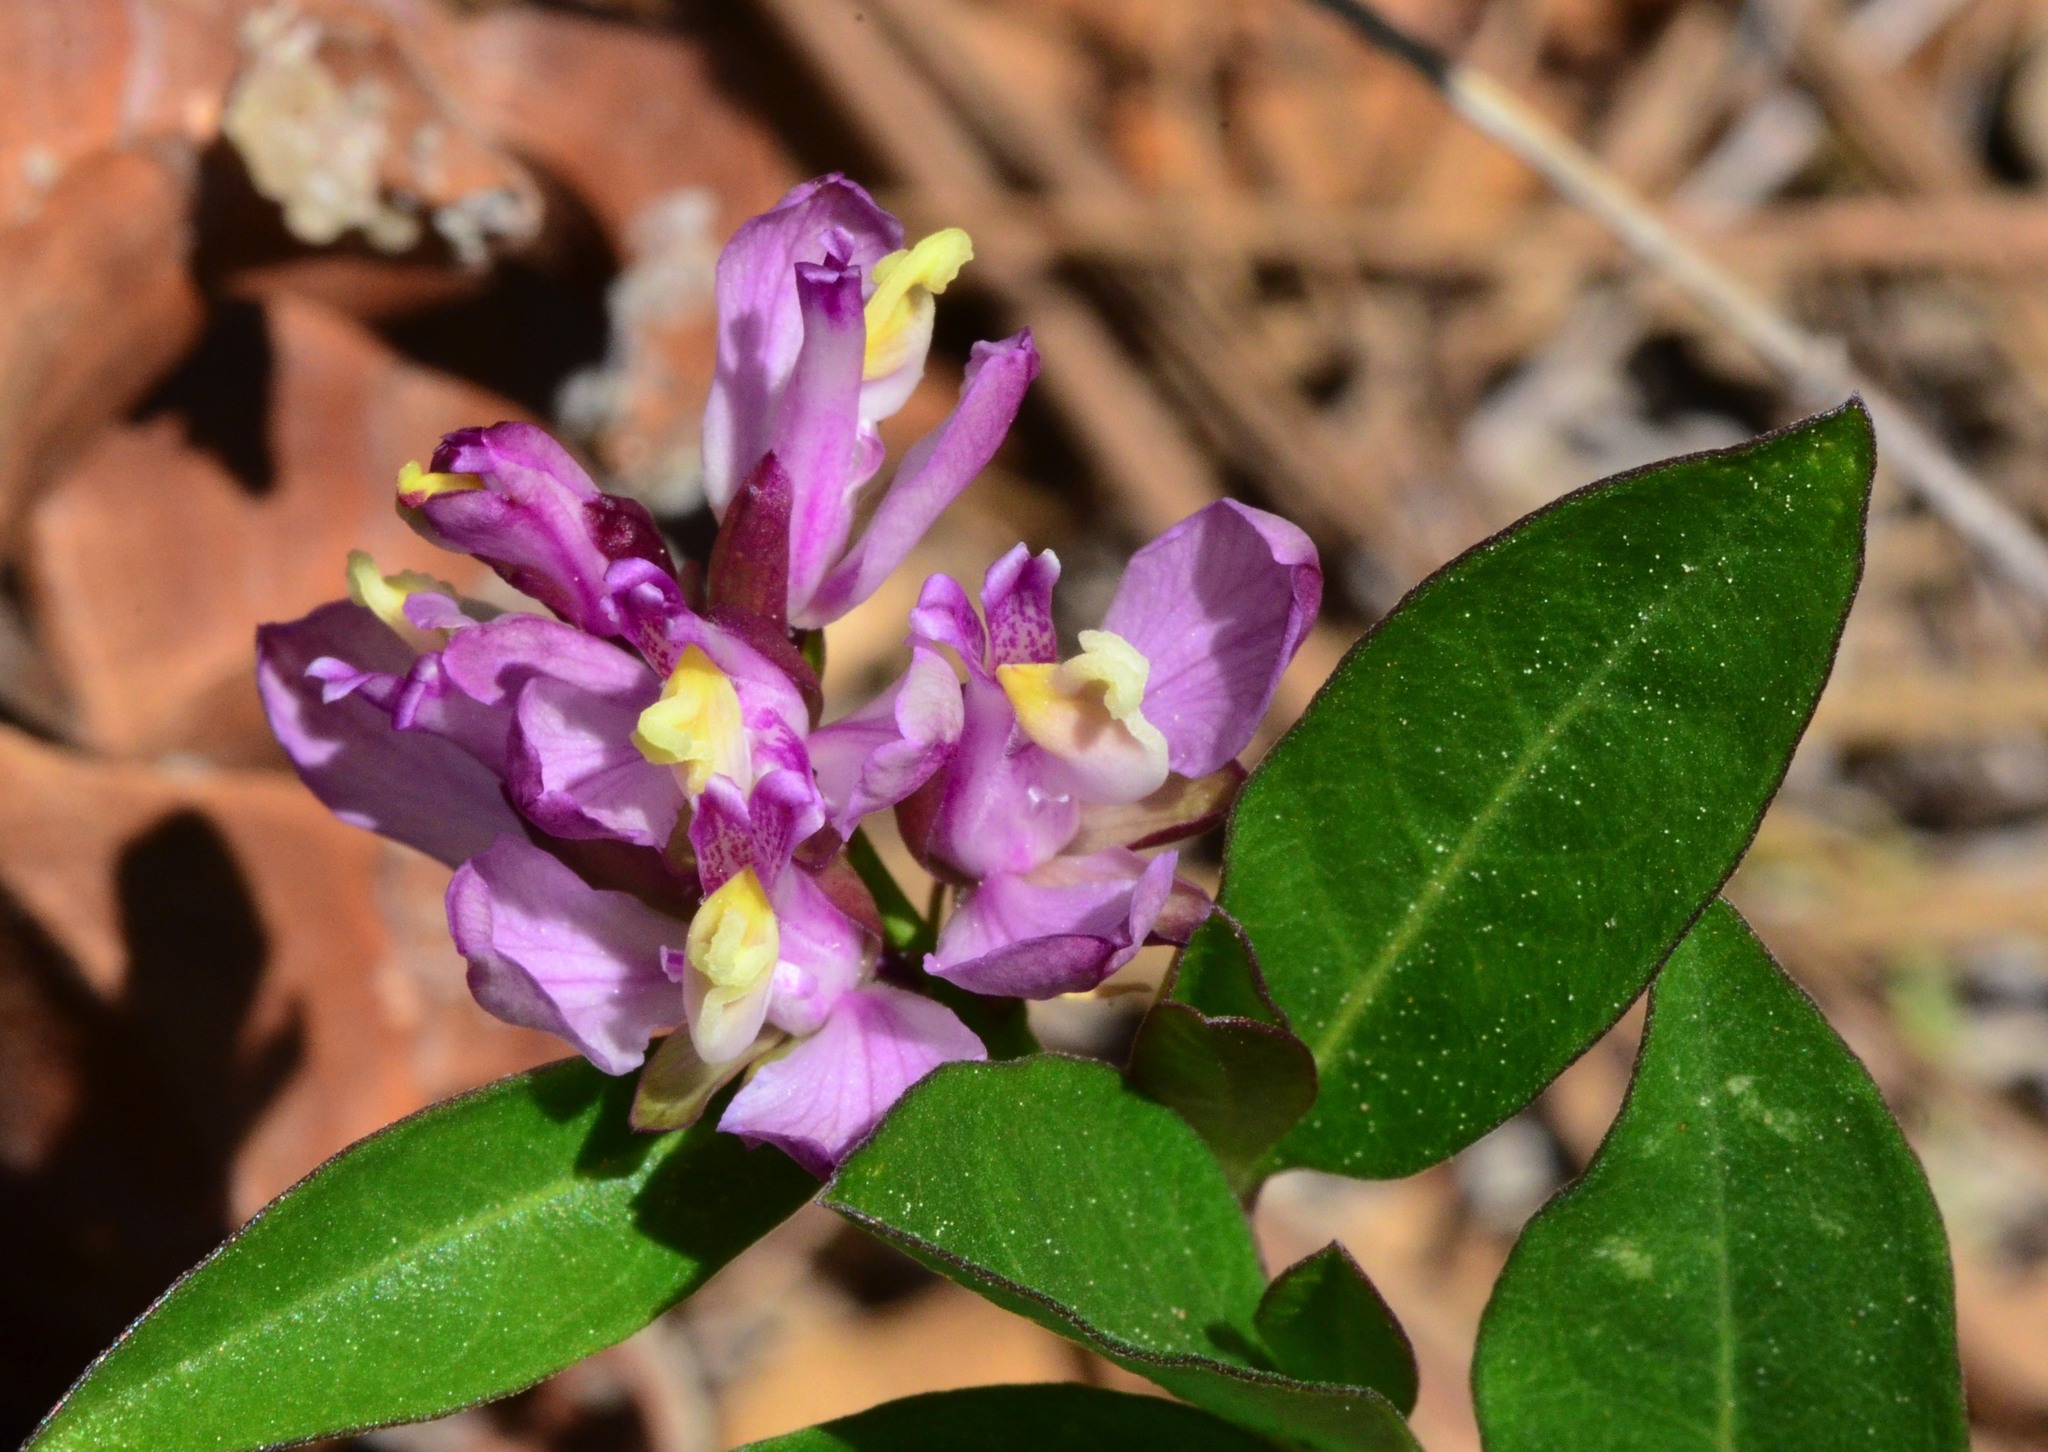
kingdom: Plantae
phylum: Tracheophyta
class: Magnoliopsida
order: Fabales
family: Polygalaceae
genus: Rhinotropis
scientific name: Rhinotropis californica
